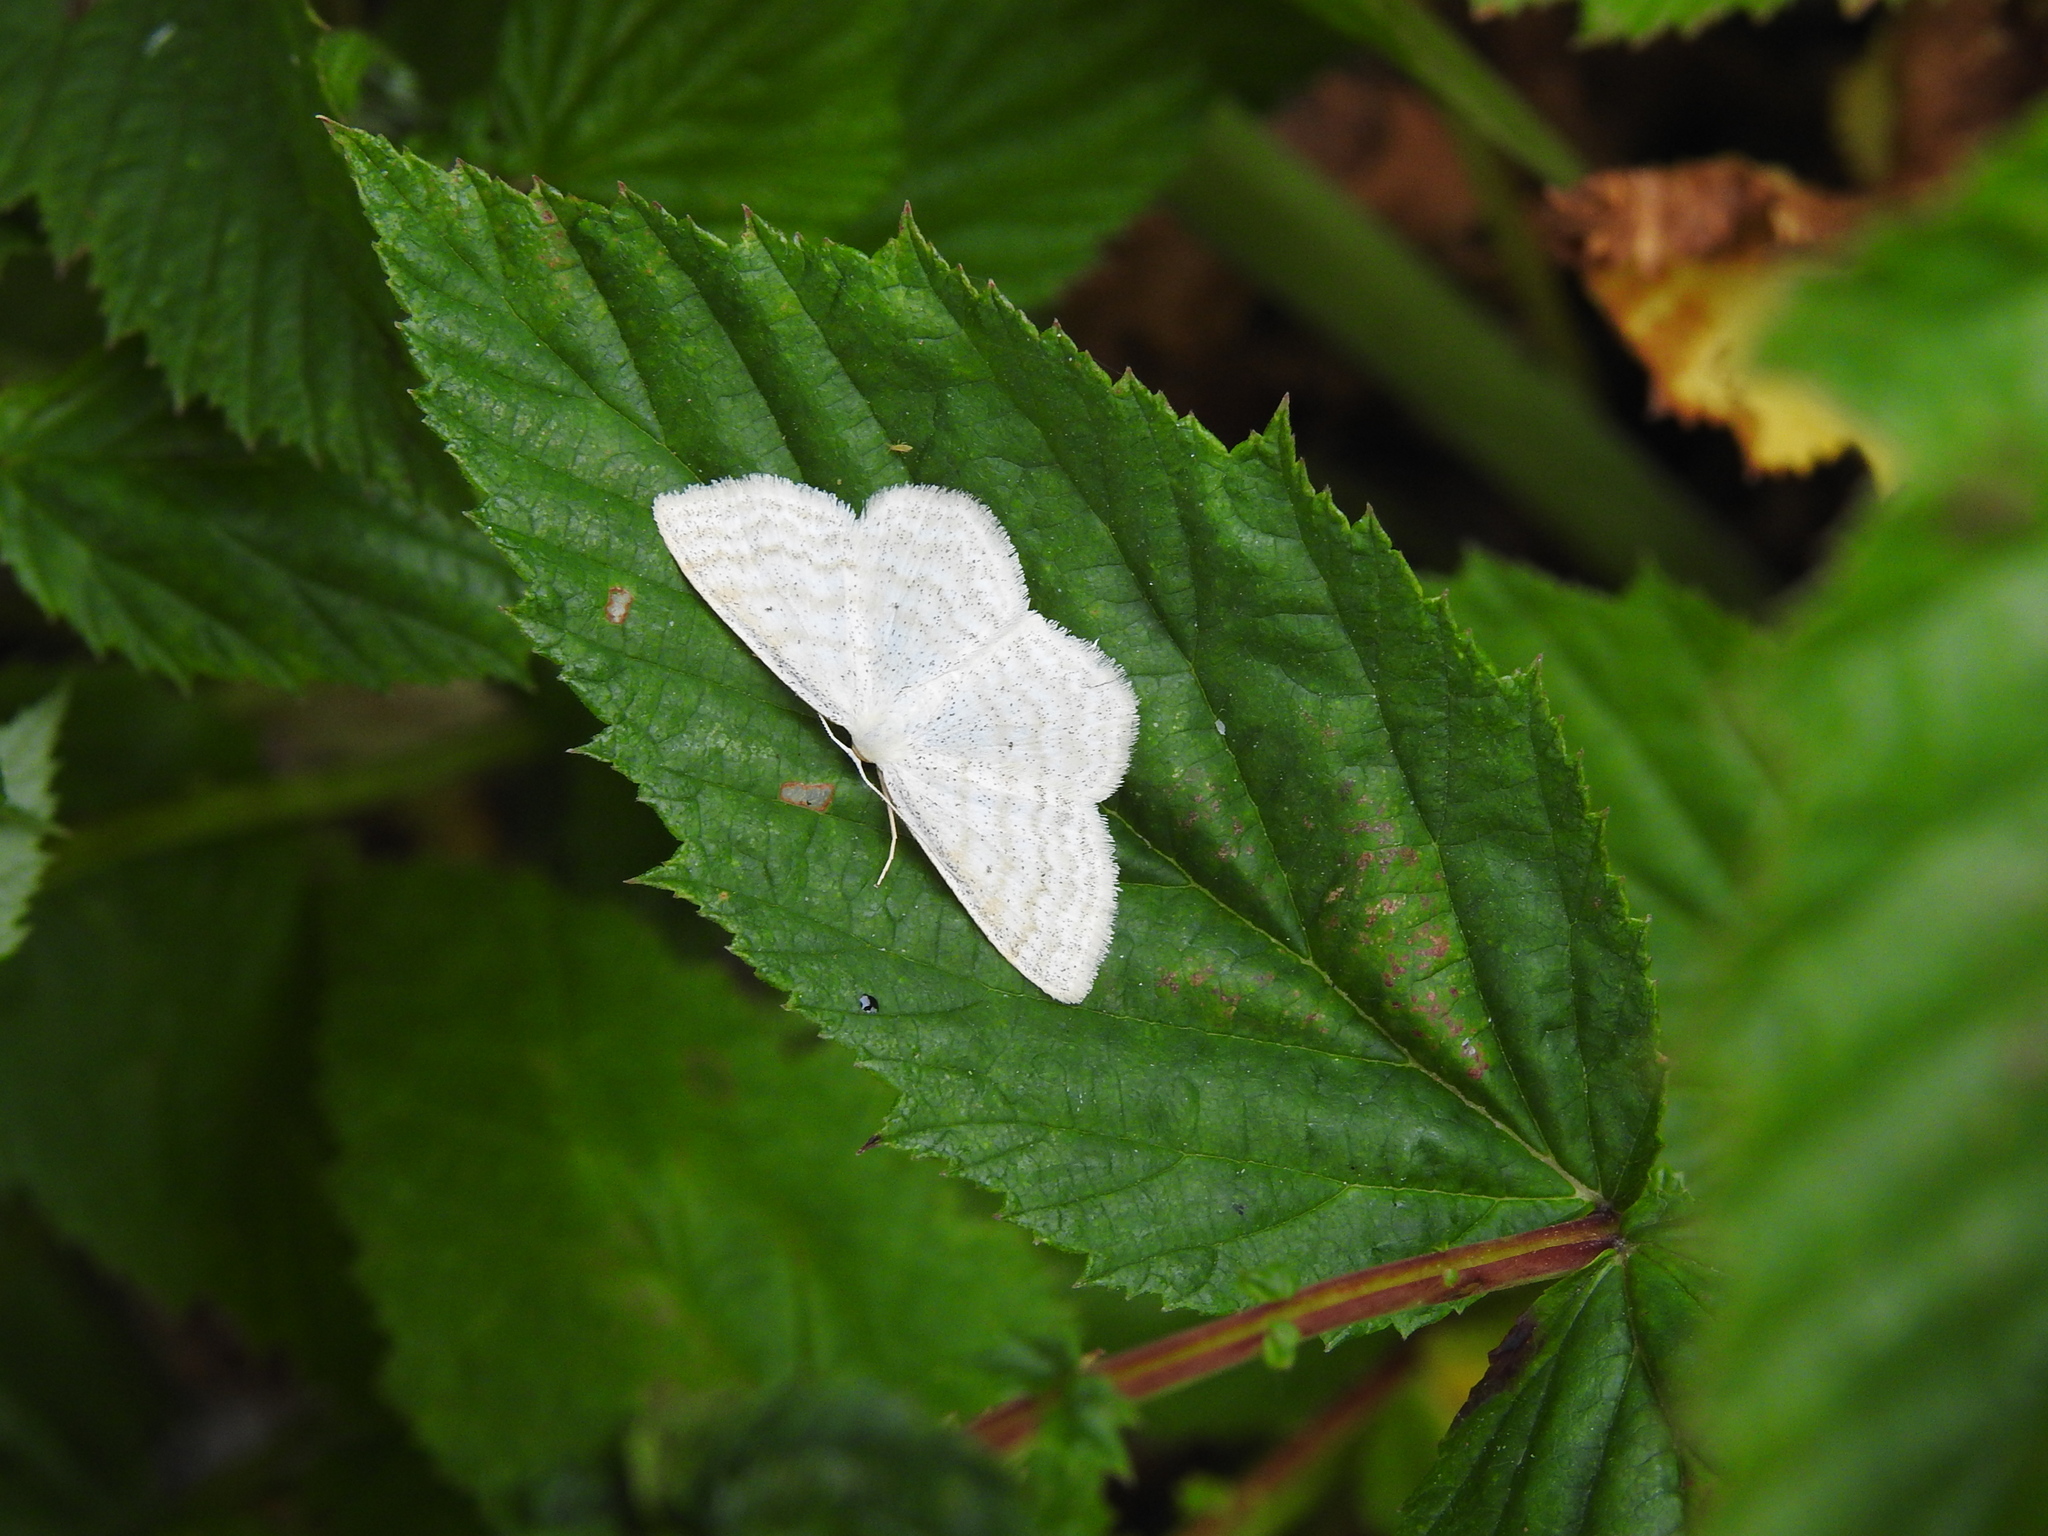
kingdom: Animalia
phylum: Arthropoda
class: Insecta
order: Lepidoptera
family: Geometridae
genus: Scopula
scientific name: Scopula floslactata
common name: Cream wave
